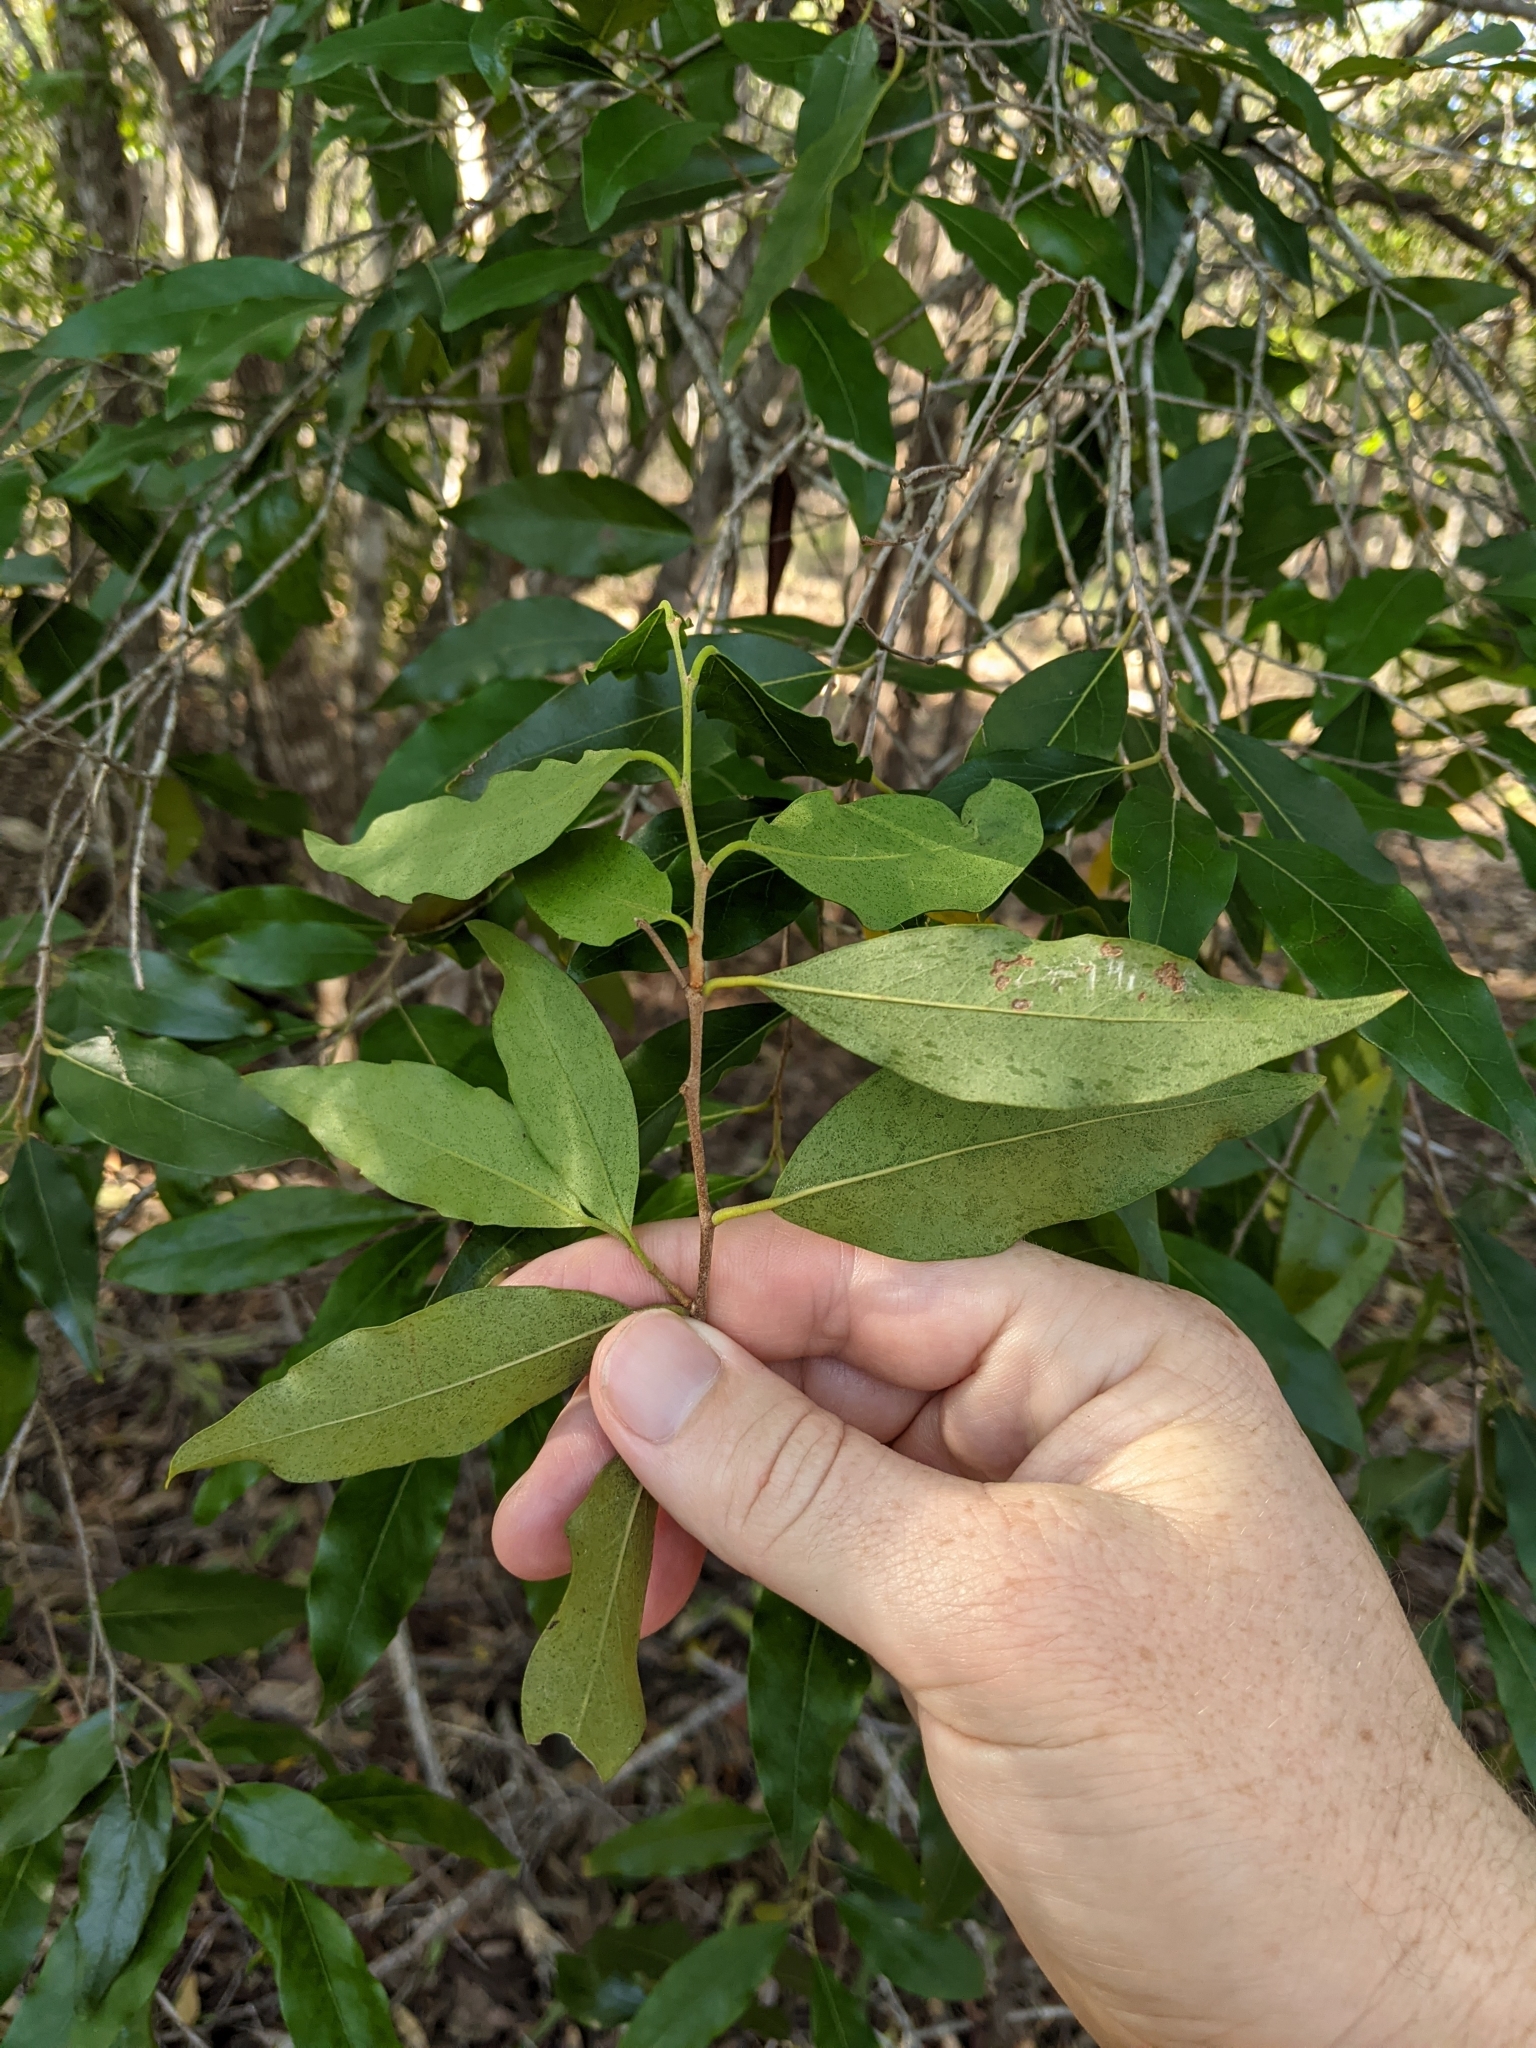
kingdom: Plantae
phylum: Tracheophyta
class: Magnoliopsida
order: Malpighiales
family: Picrodendraceae
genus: Petalostigma
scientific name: Petalostigma triloculare
